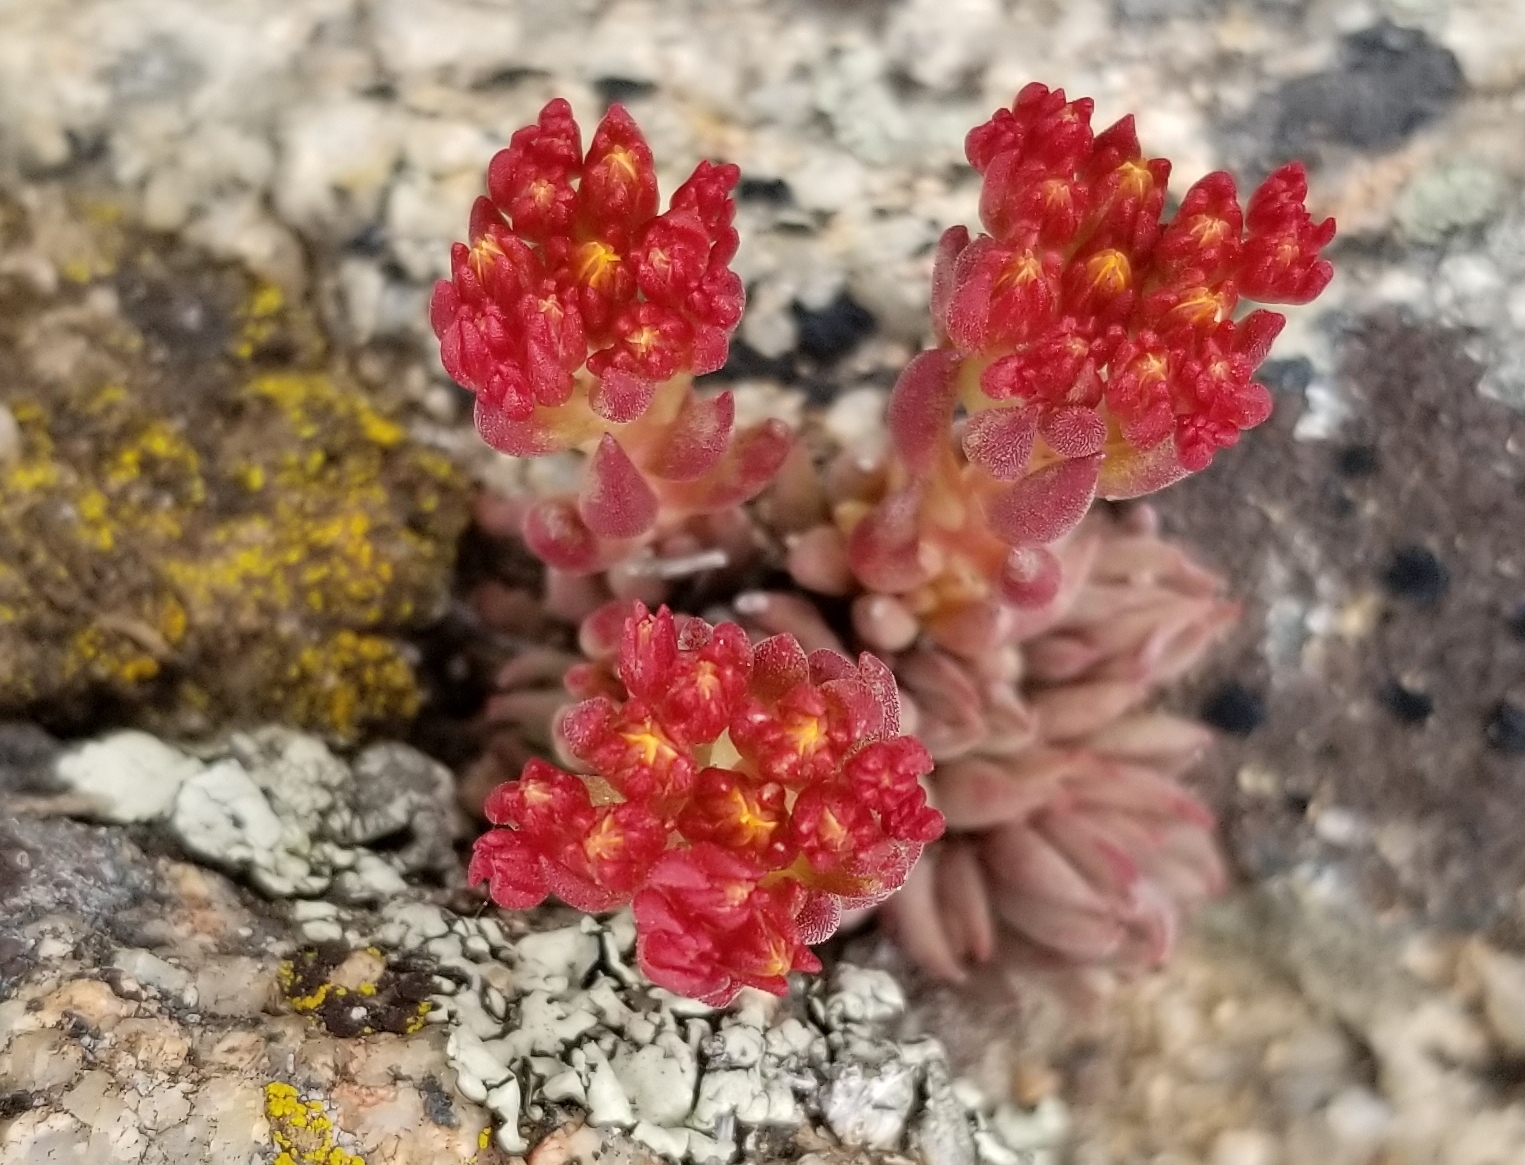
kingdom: Plantae
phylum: Tracheophyta
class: Magnoliopsida
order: Saxifragales
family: Crassulaceae
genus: Sedum
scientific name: Sedum lanceolatum
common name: Common stonecrop
